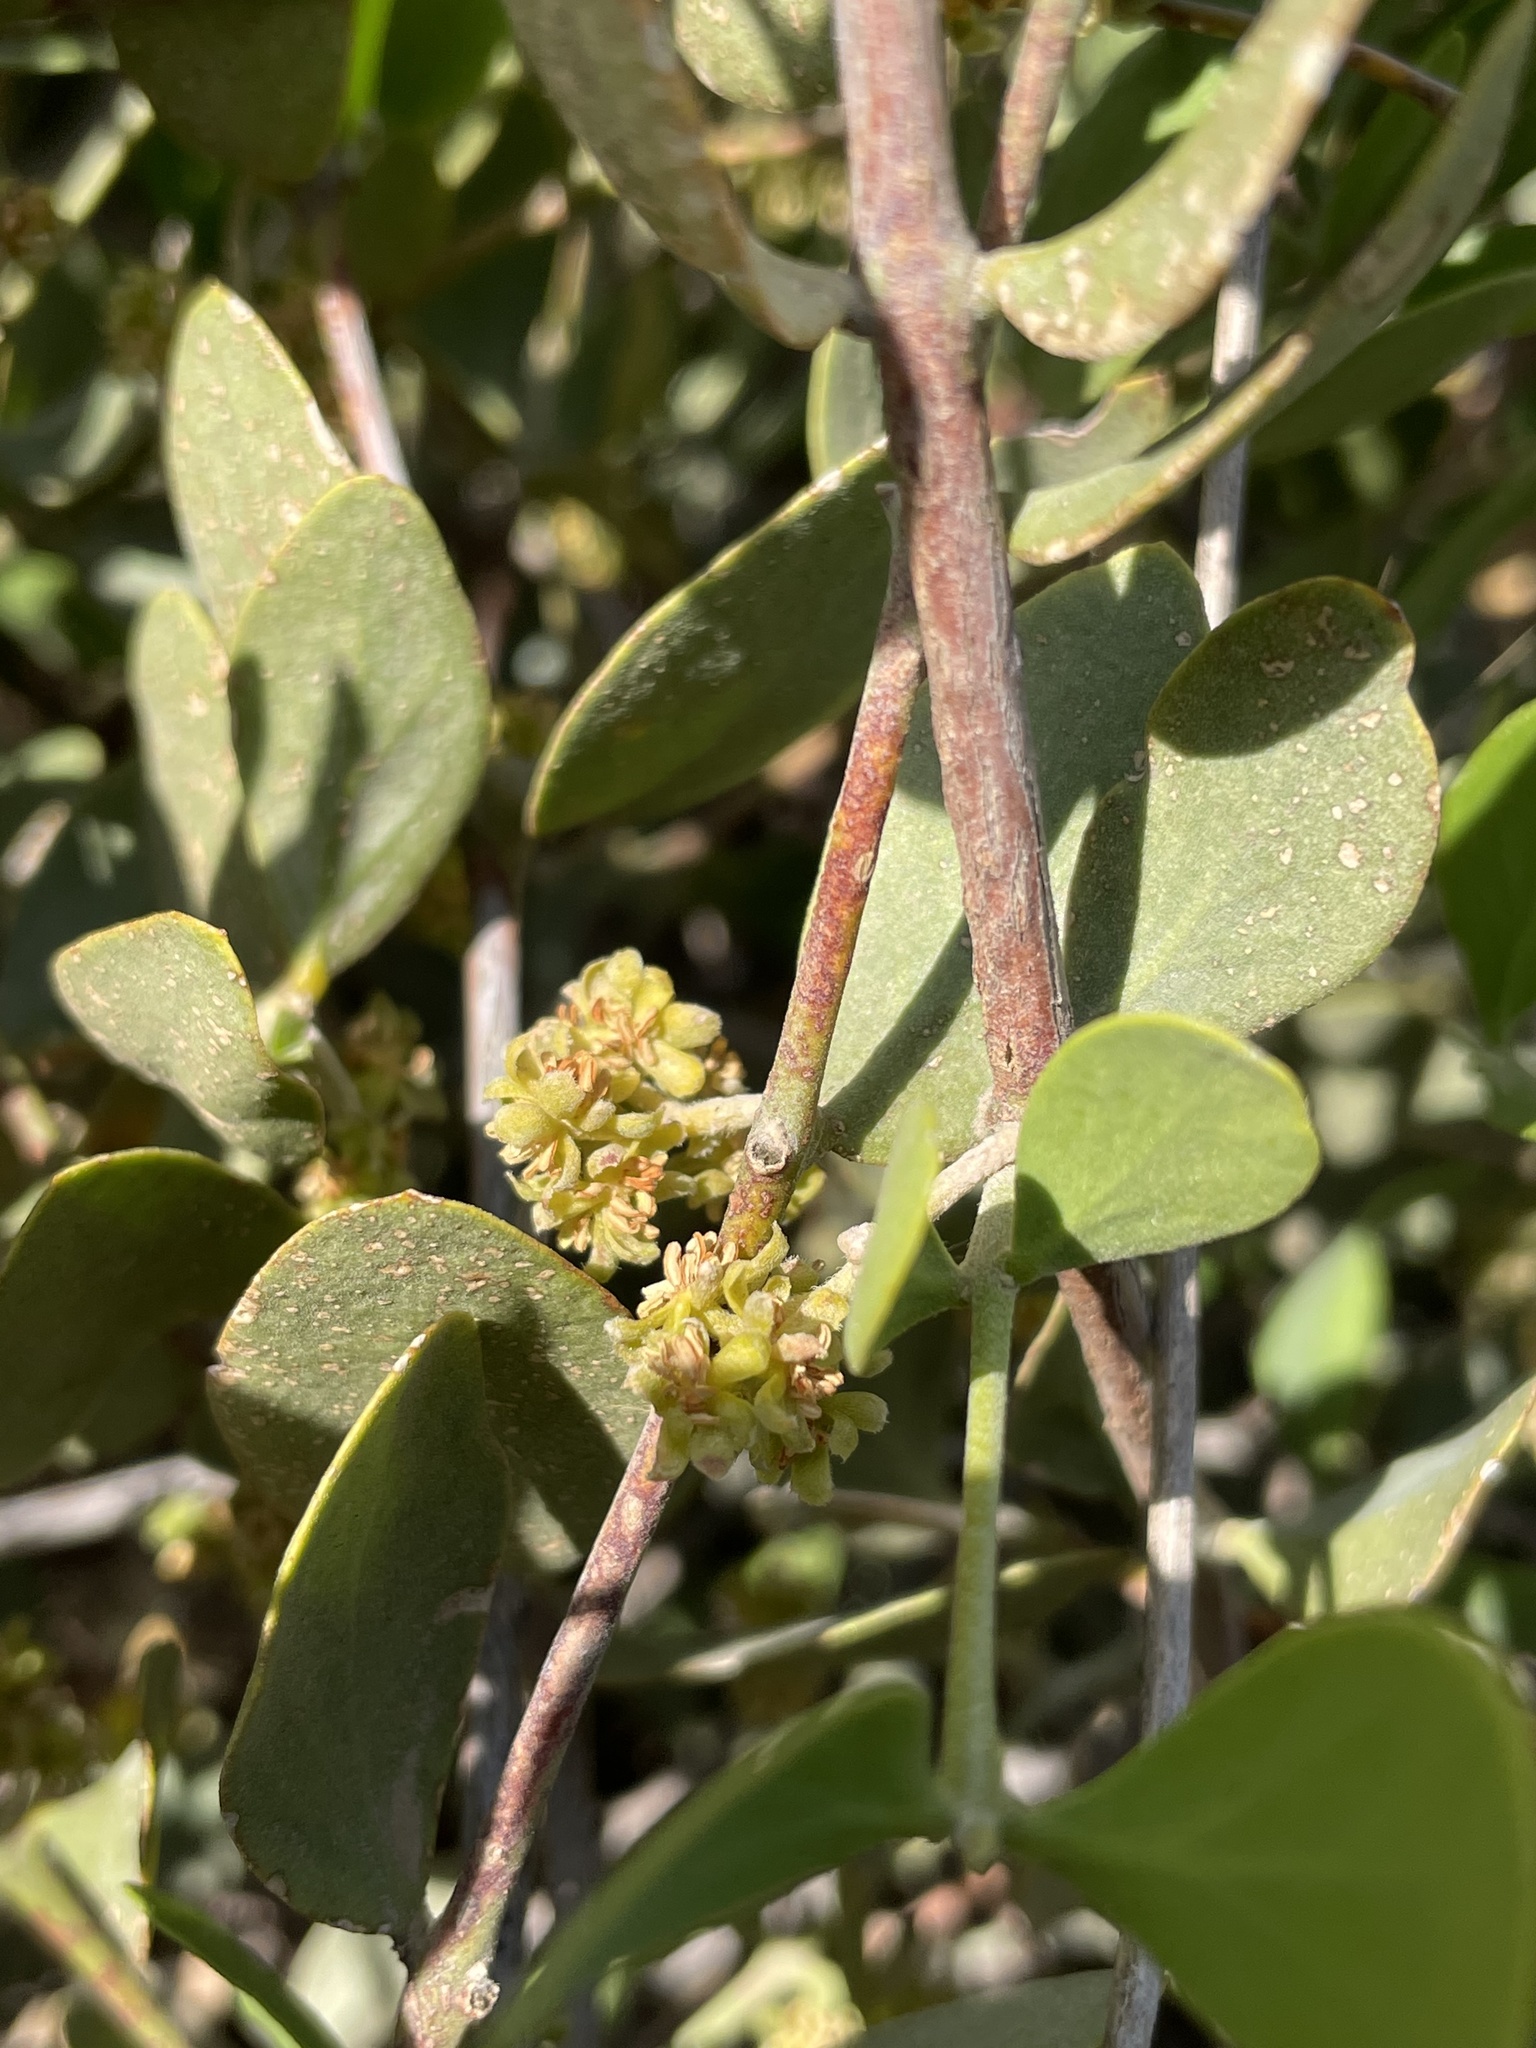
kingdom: Plantae
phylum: Tracheophyta
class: Magnoliopsida
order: Caryophyllales
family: Simmondsiaceae
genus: Simmondsia
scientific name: Simmondsia chinensis
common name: Jojoba
